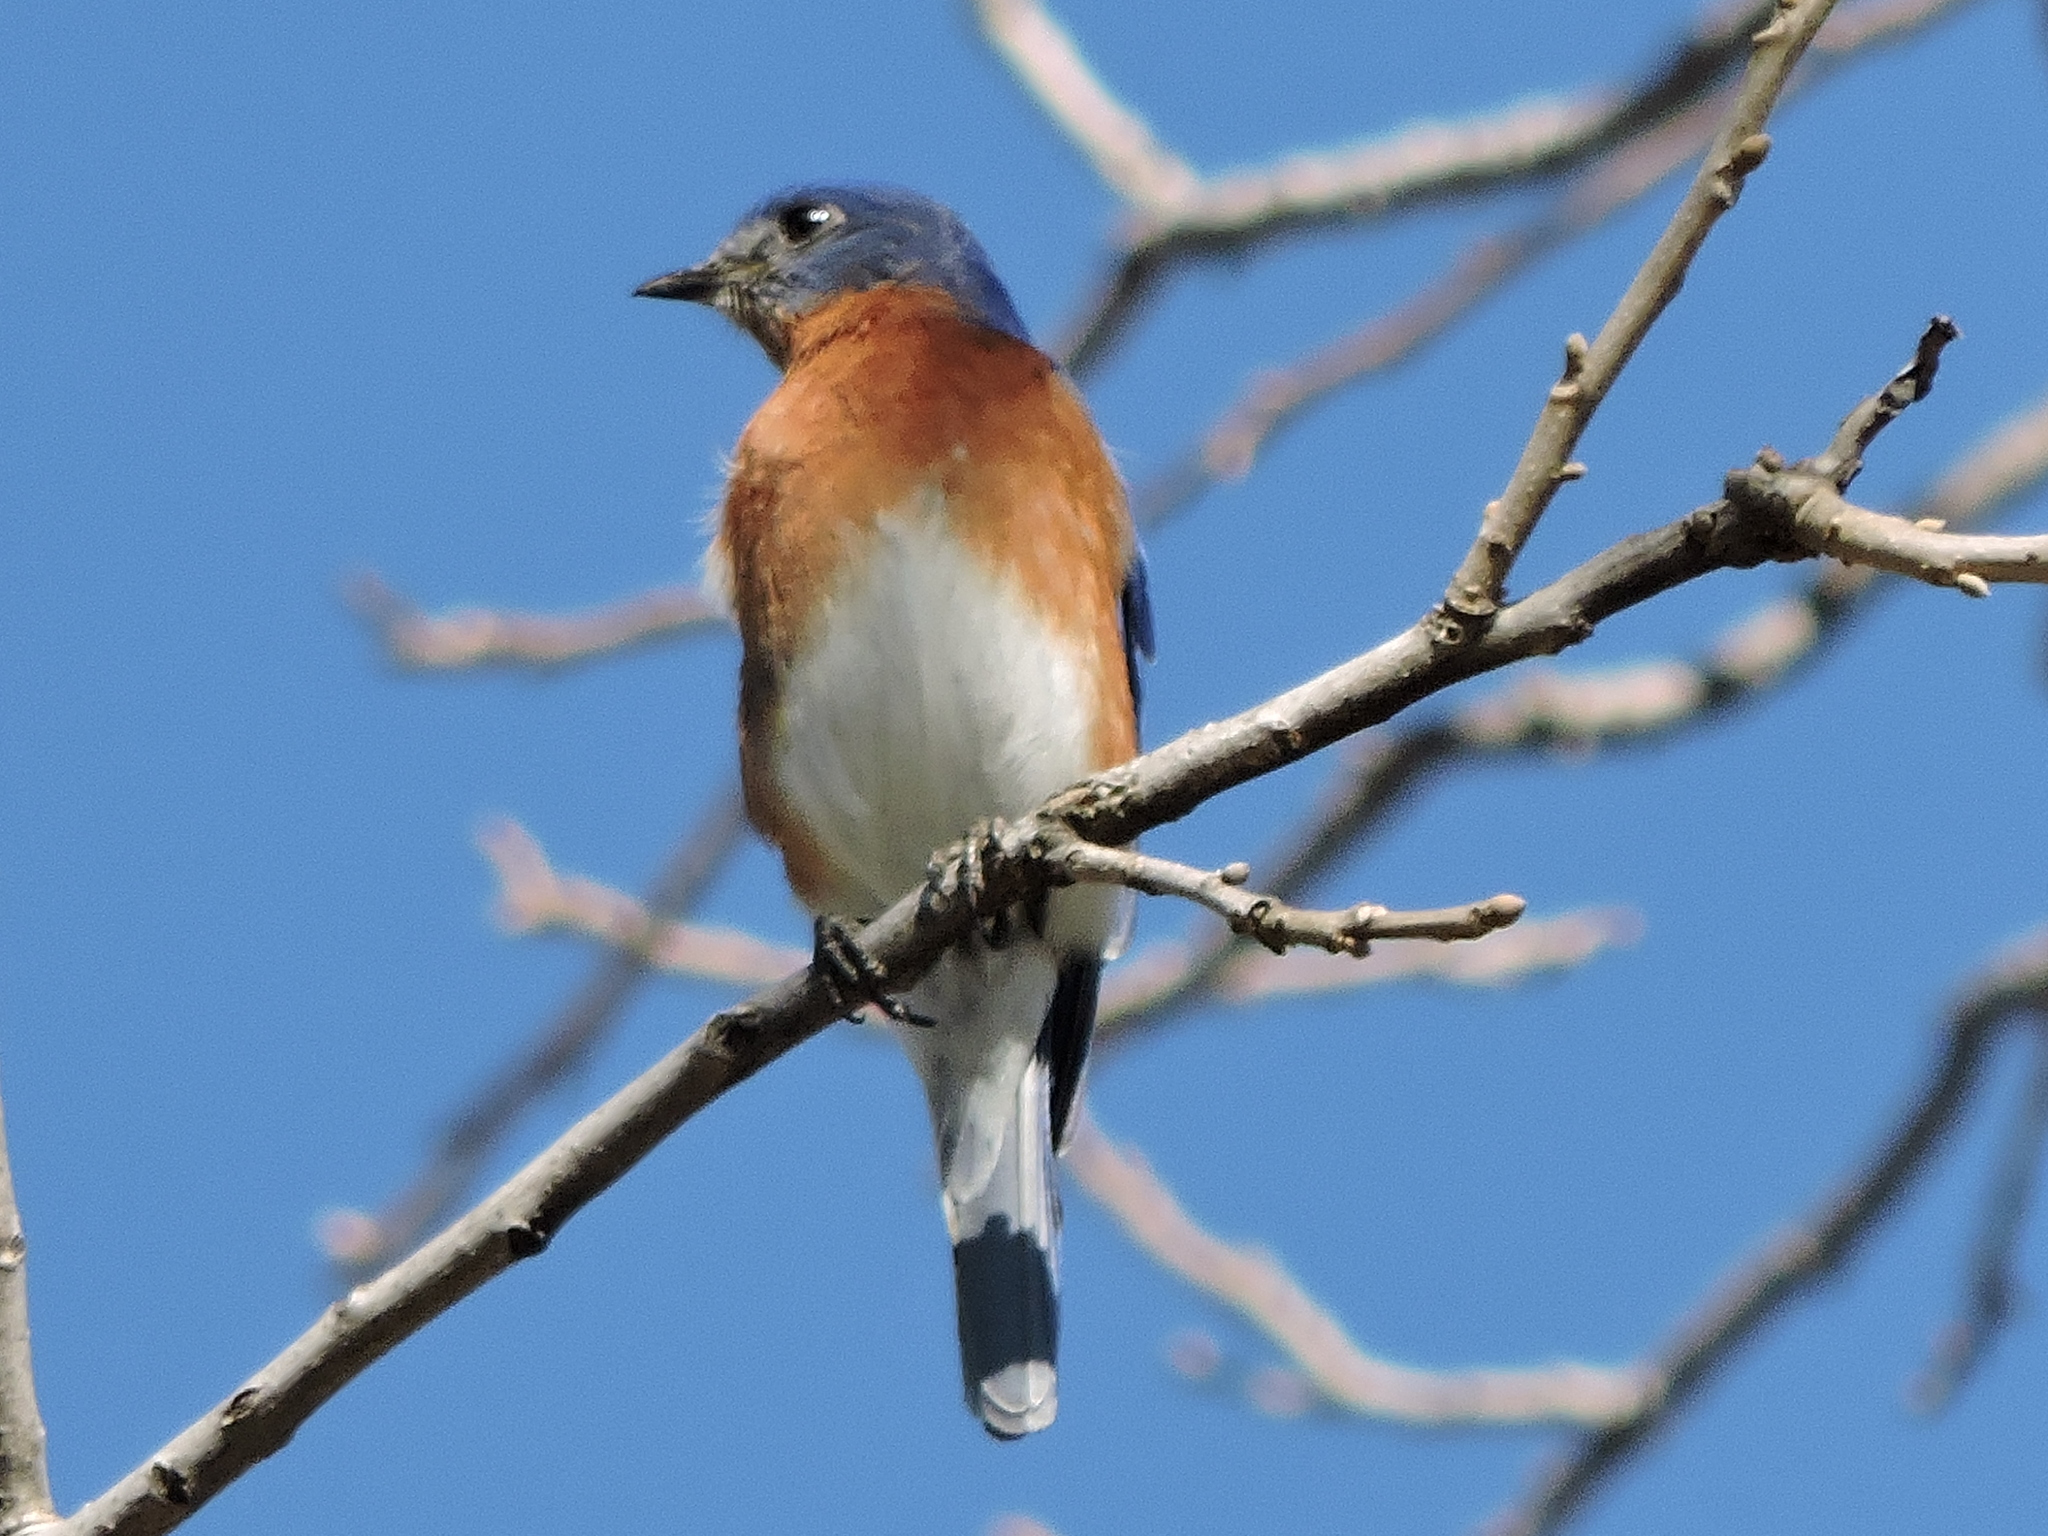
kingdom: Animalia
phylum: Chordata
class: Aves
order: Passeriformes
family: Turdidae
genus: Sialia
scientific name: Sialia sialis
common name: Eastern bluebird
